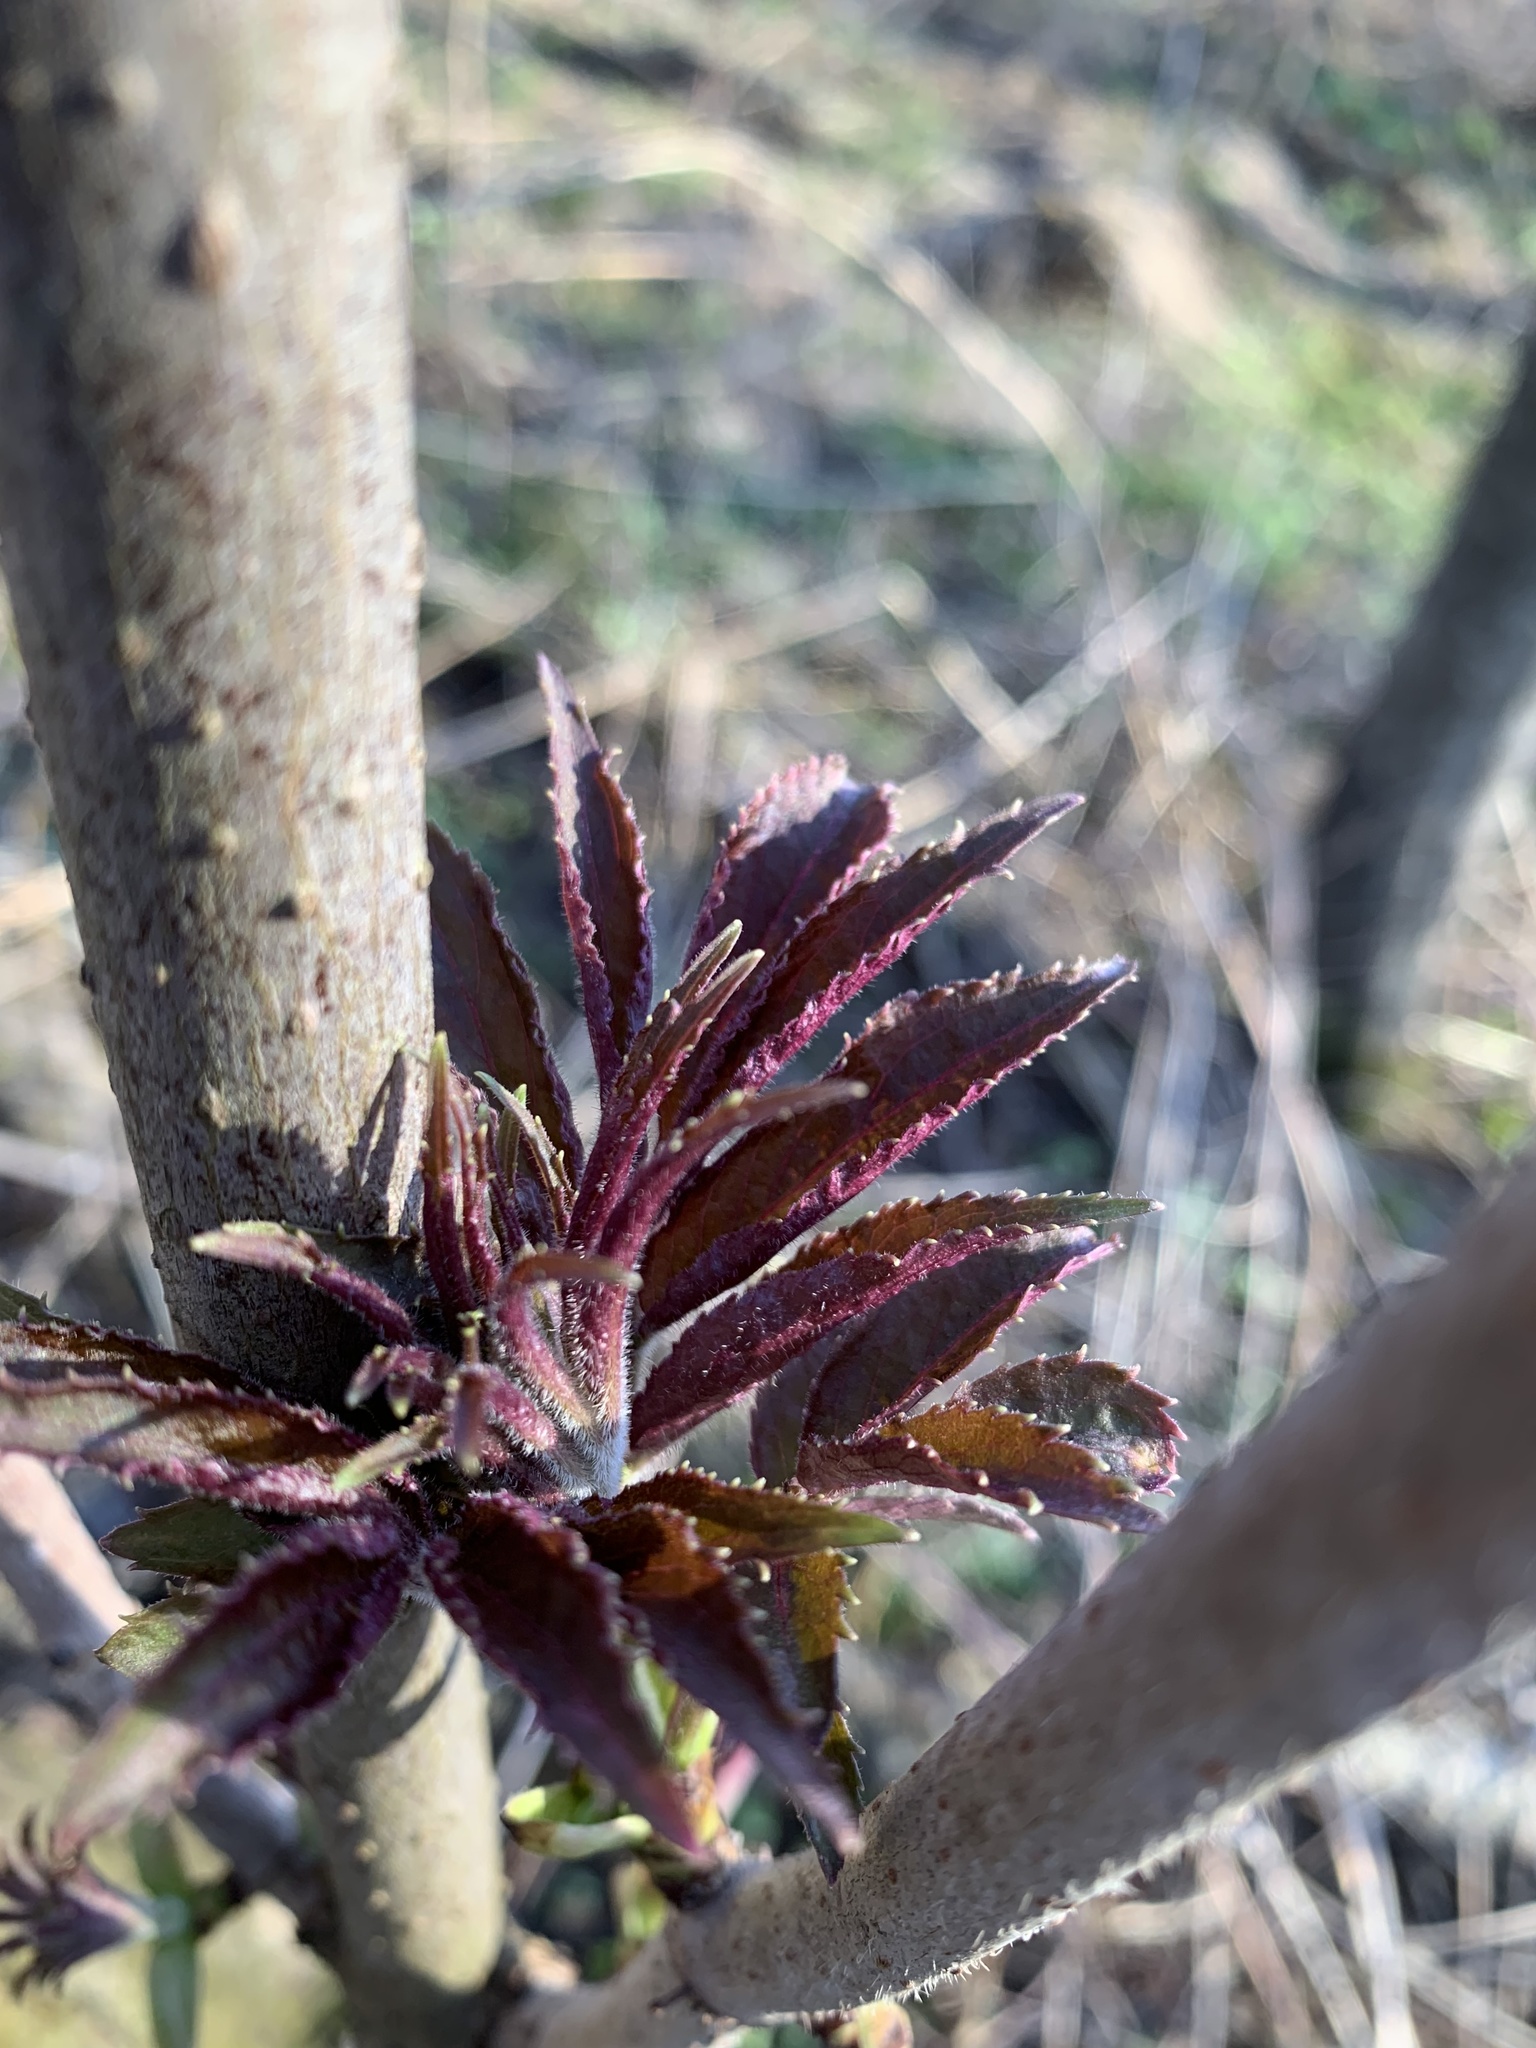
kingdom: Plantae
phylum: Tracheophyta
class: Magnoliopsida
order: Dipsacales
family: Viburnaceae
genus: Sambucus
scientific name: Sambucus racemosa
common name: Red-berried elder
